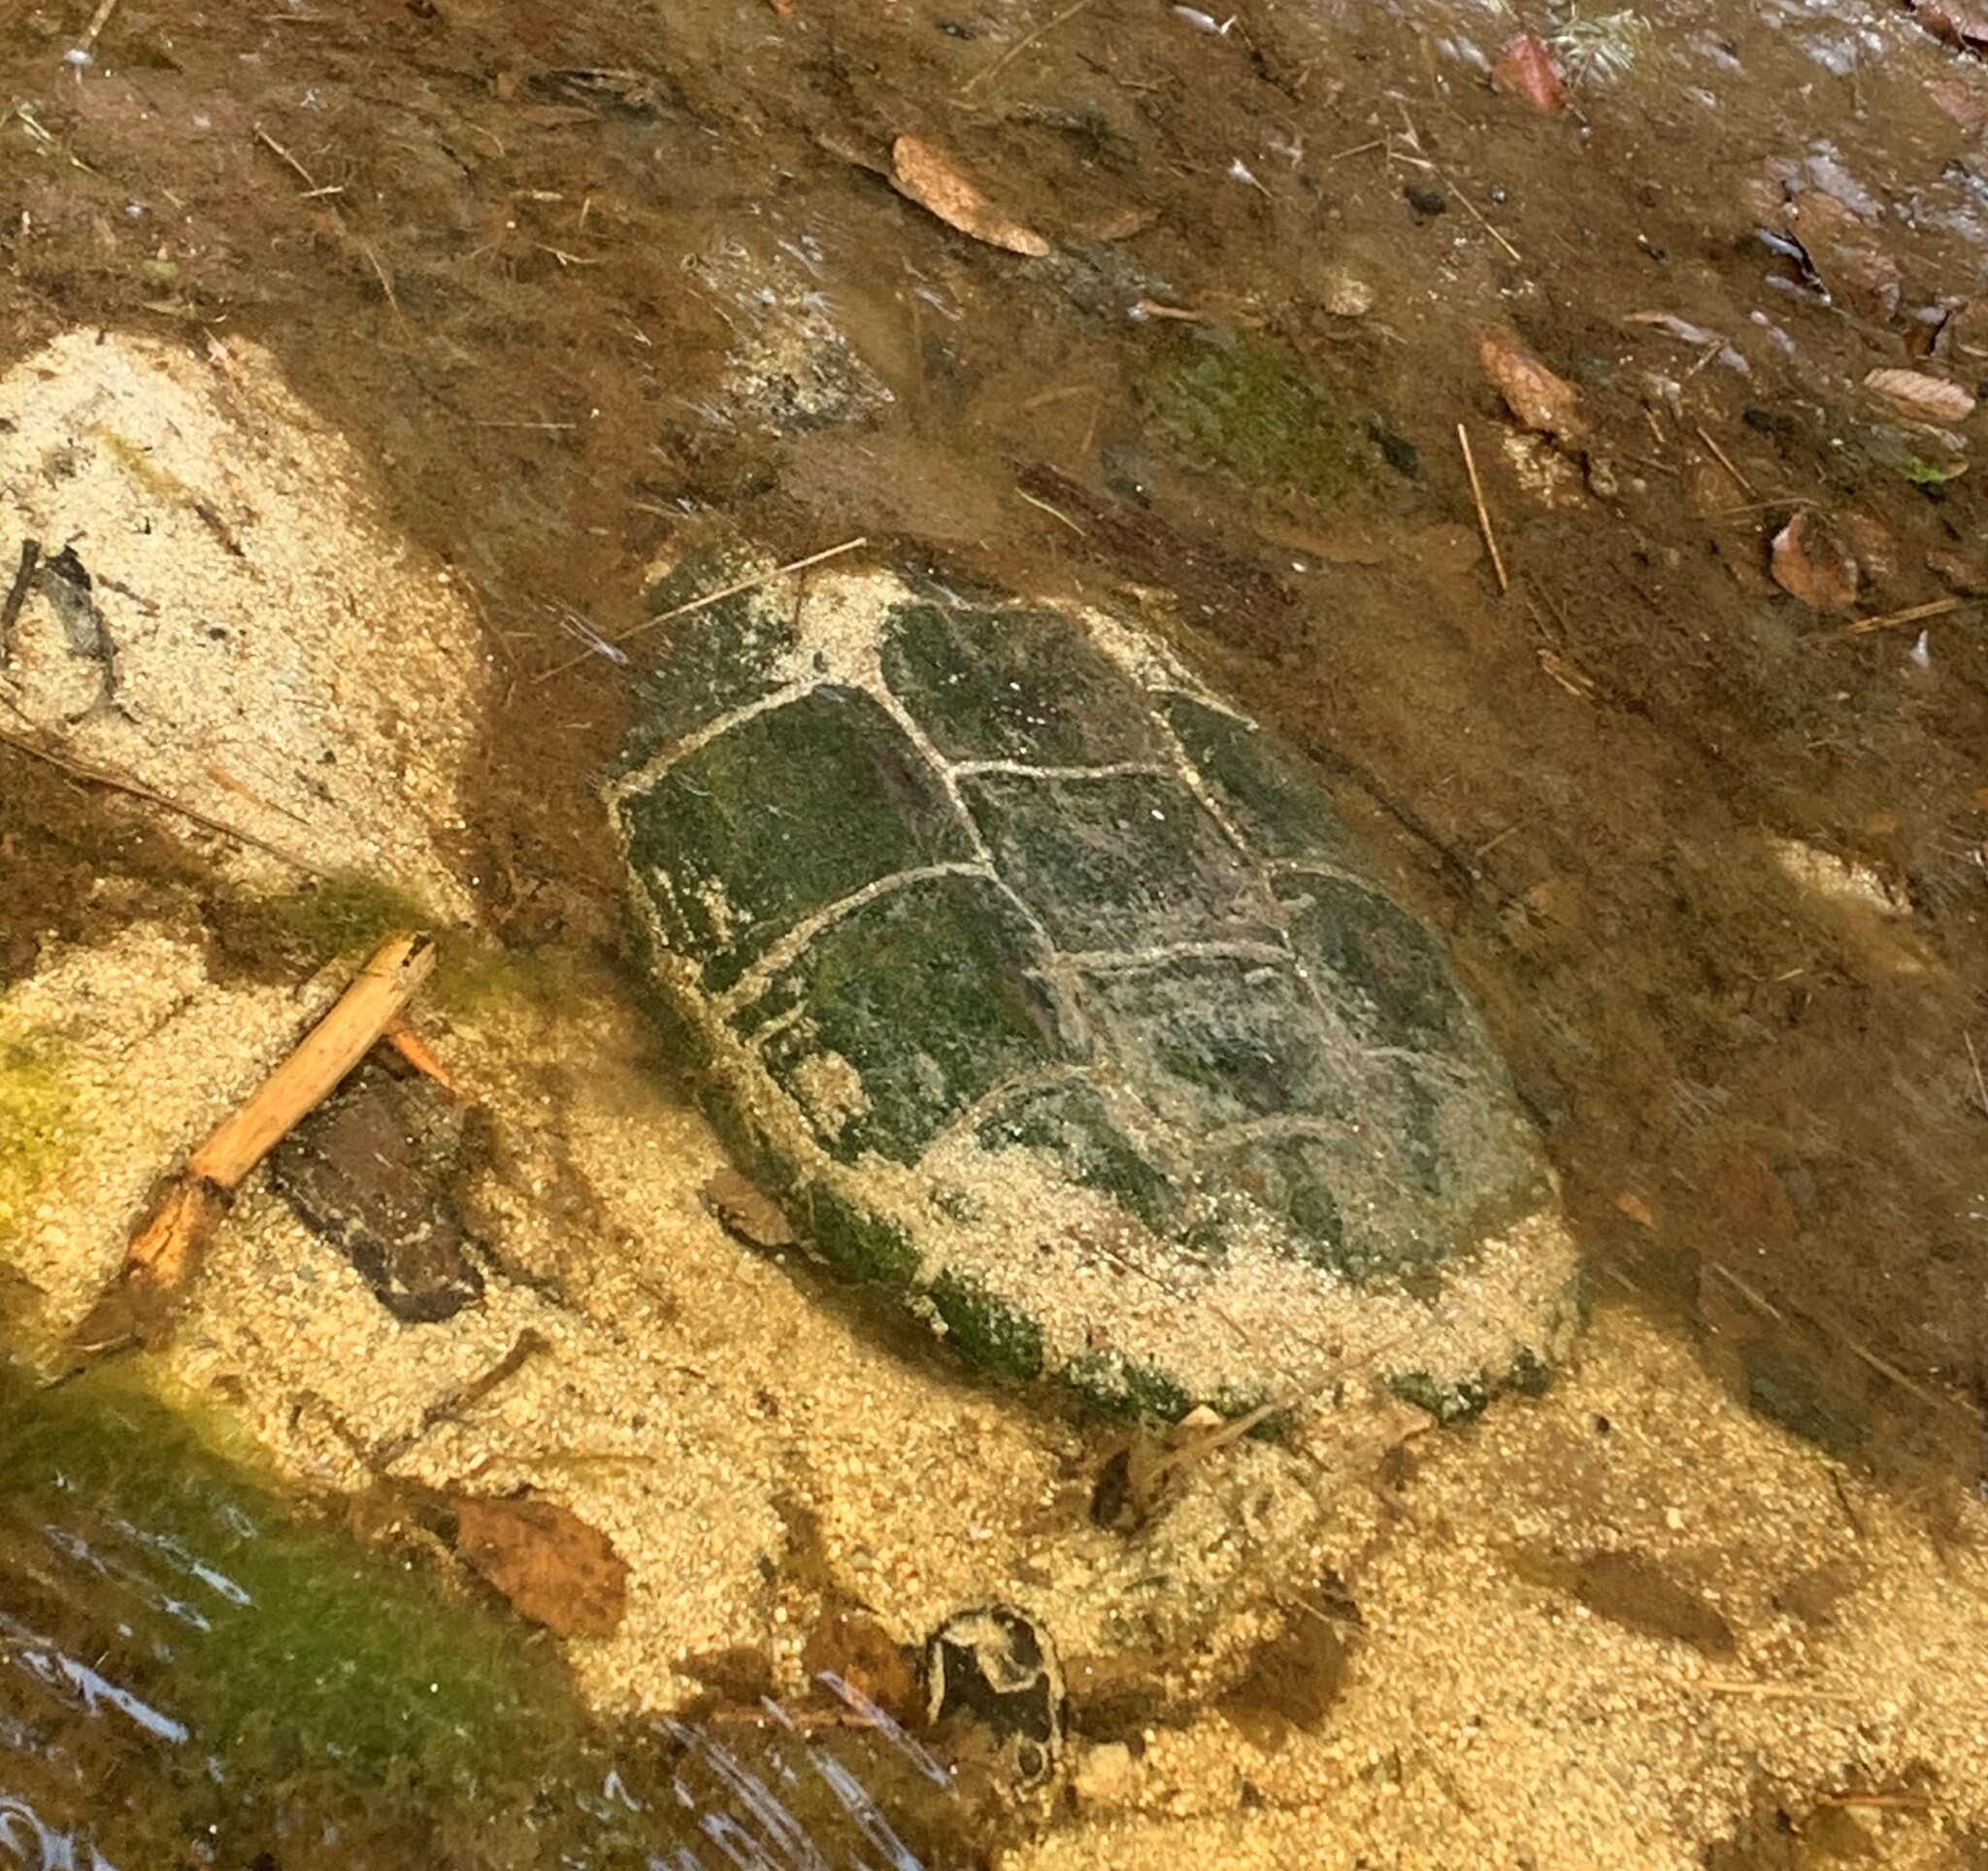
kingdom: Animalia
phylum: Chordata
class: Testudines
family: Chelydridae
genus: Chelydra
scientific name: Chelydra serpentina
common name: Common snapping turtle
